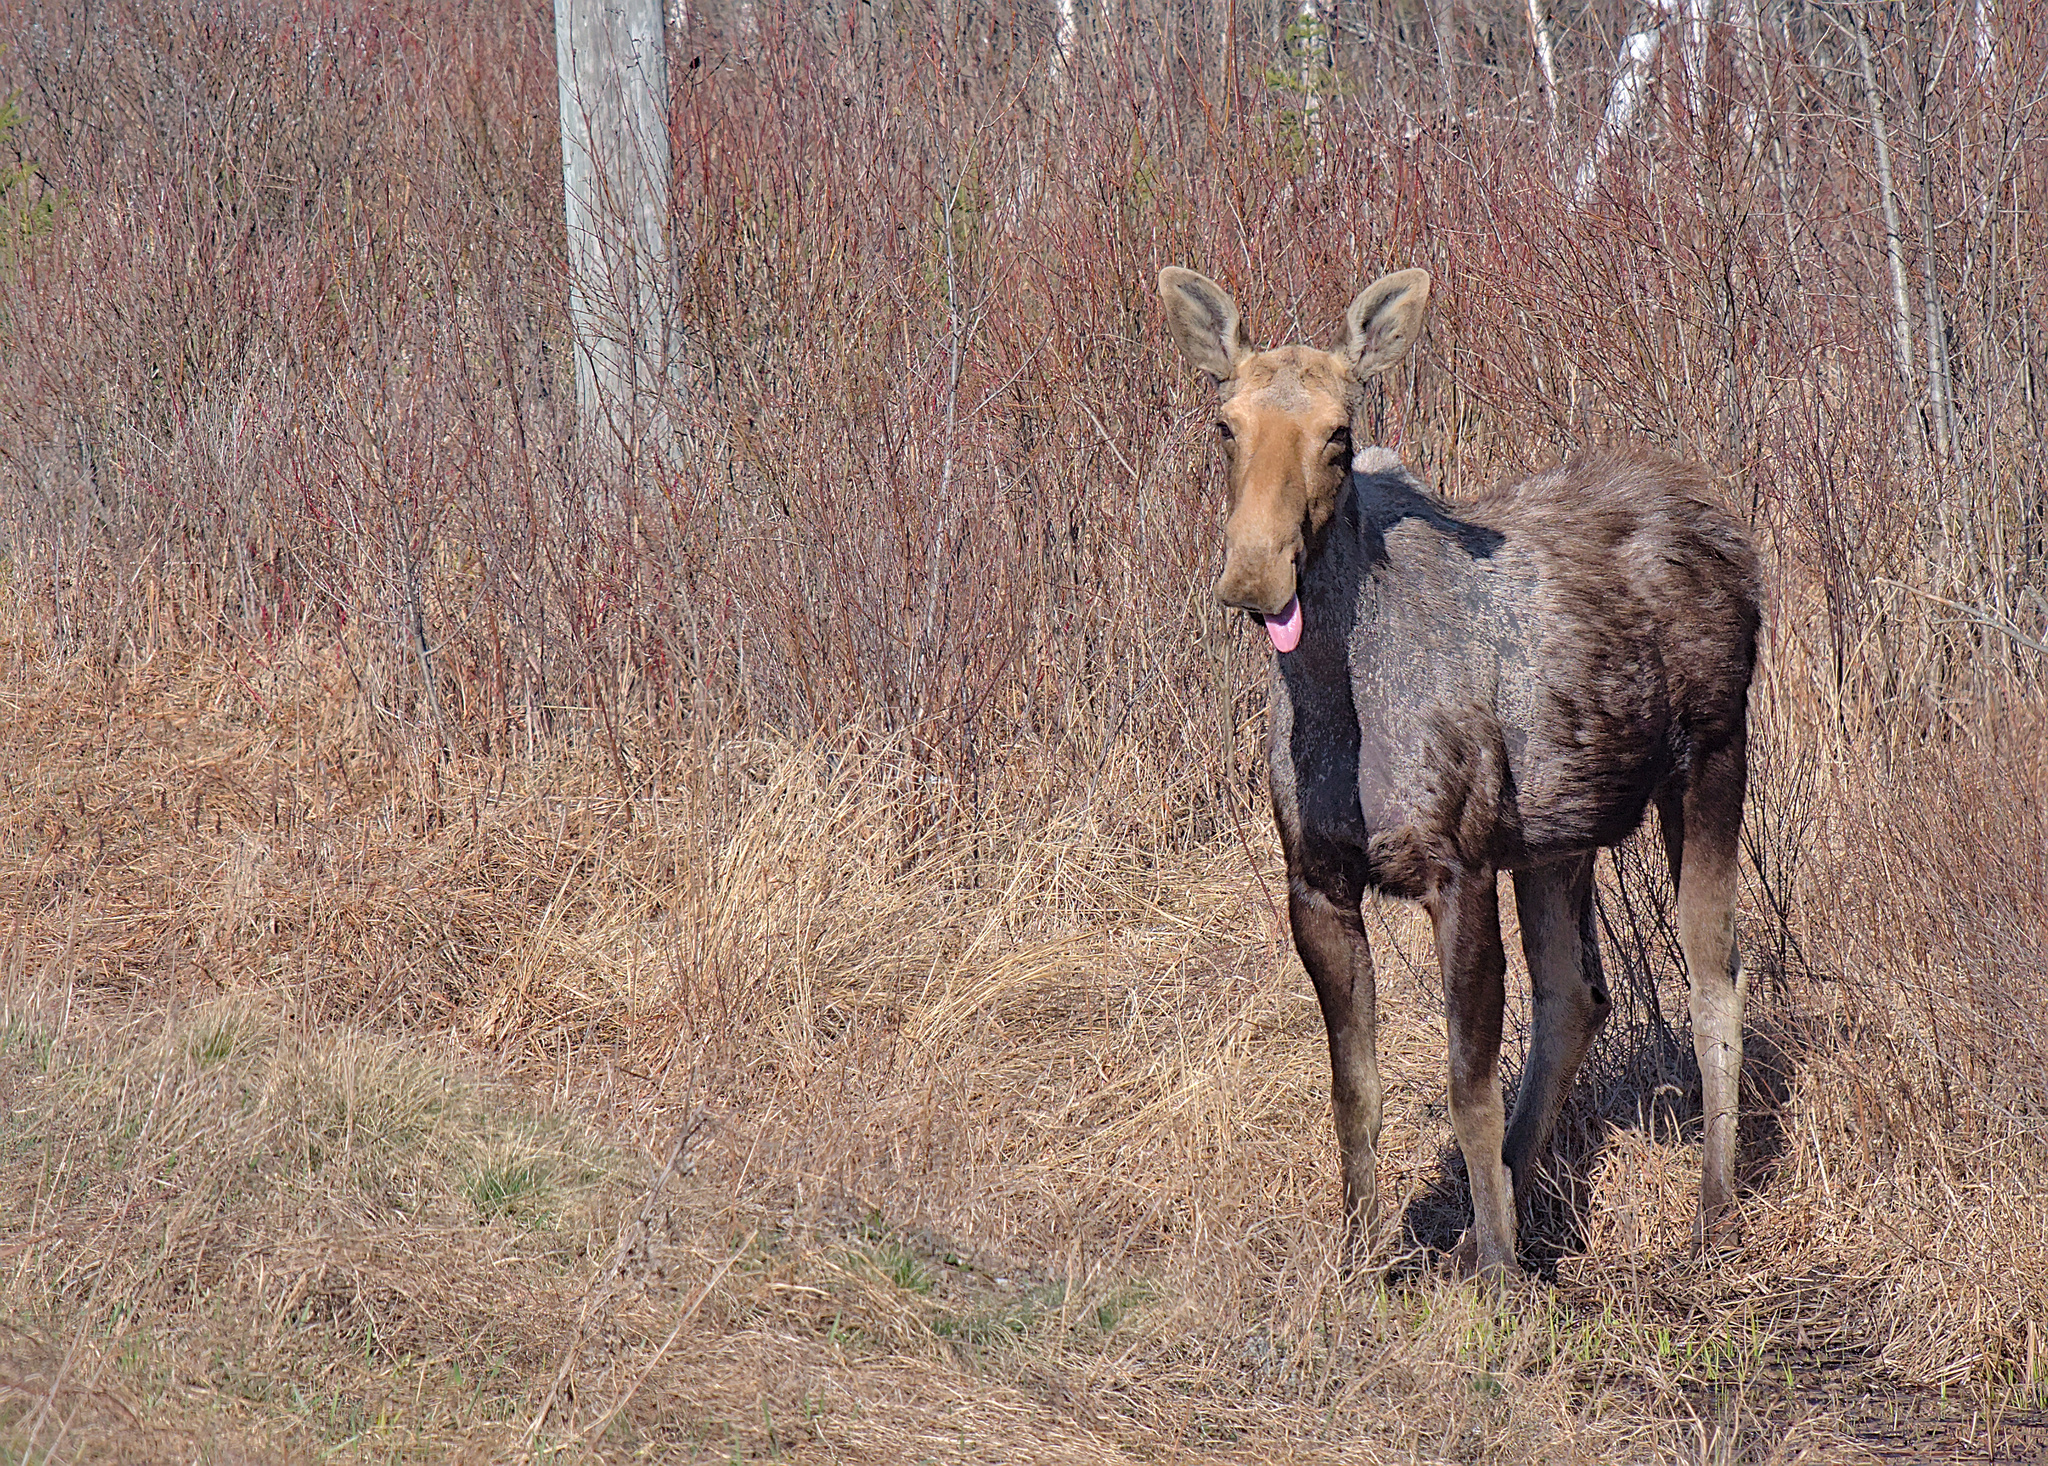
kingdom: Animalia
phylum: Chordata
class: Mammalia
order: Artiodactyla
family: Cervidae
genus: Alces
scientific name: Alces alces
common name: Moose
